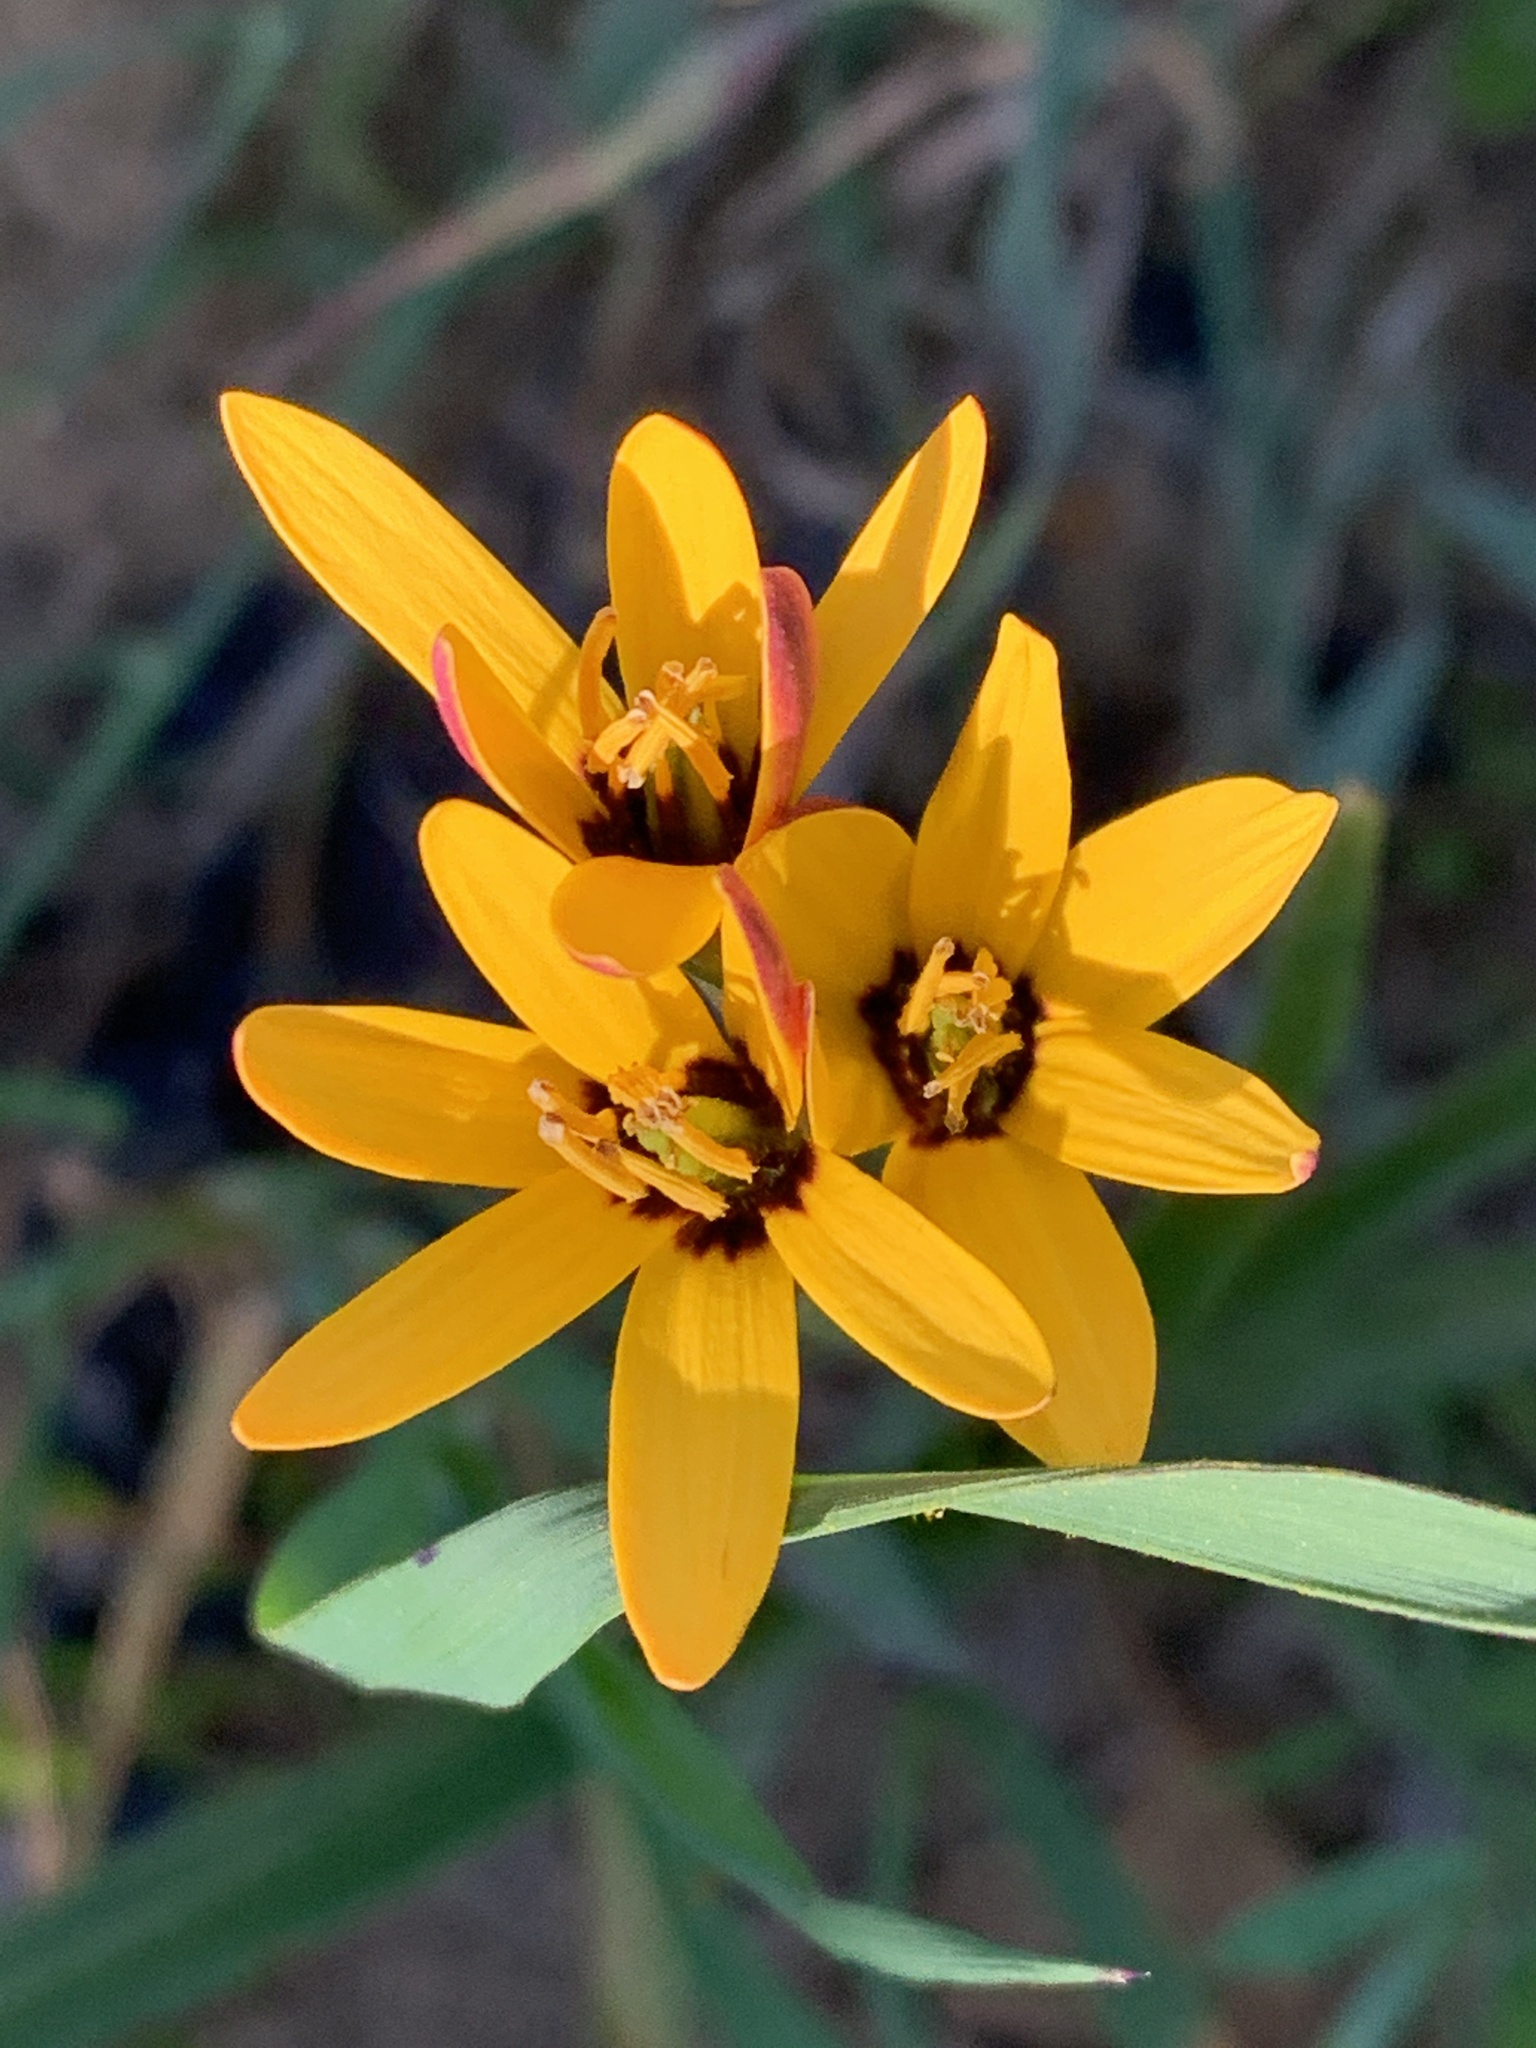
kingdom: Plantae
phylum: Tracheophyta
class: Liliopsida
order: Liliales
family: Colchicaceae
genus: Baeometra
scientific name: Baeometra uniflora
